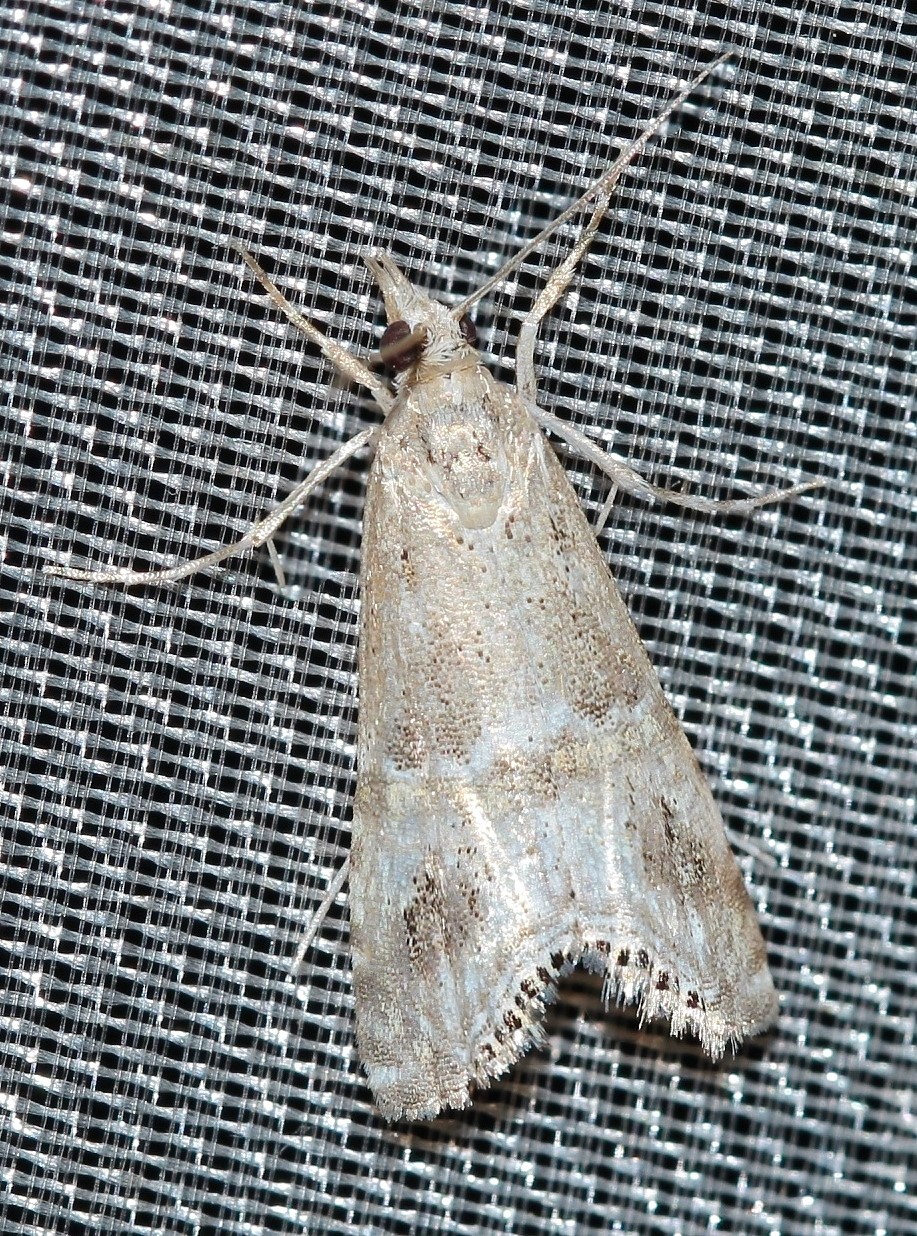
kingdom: Animalia
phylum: Arthropoda
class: Insecta
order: Lepidoptera
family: Crambidae
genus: Euchromius
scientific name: Euchromius bleszynskiellus
